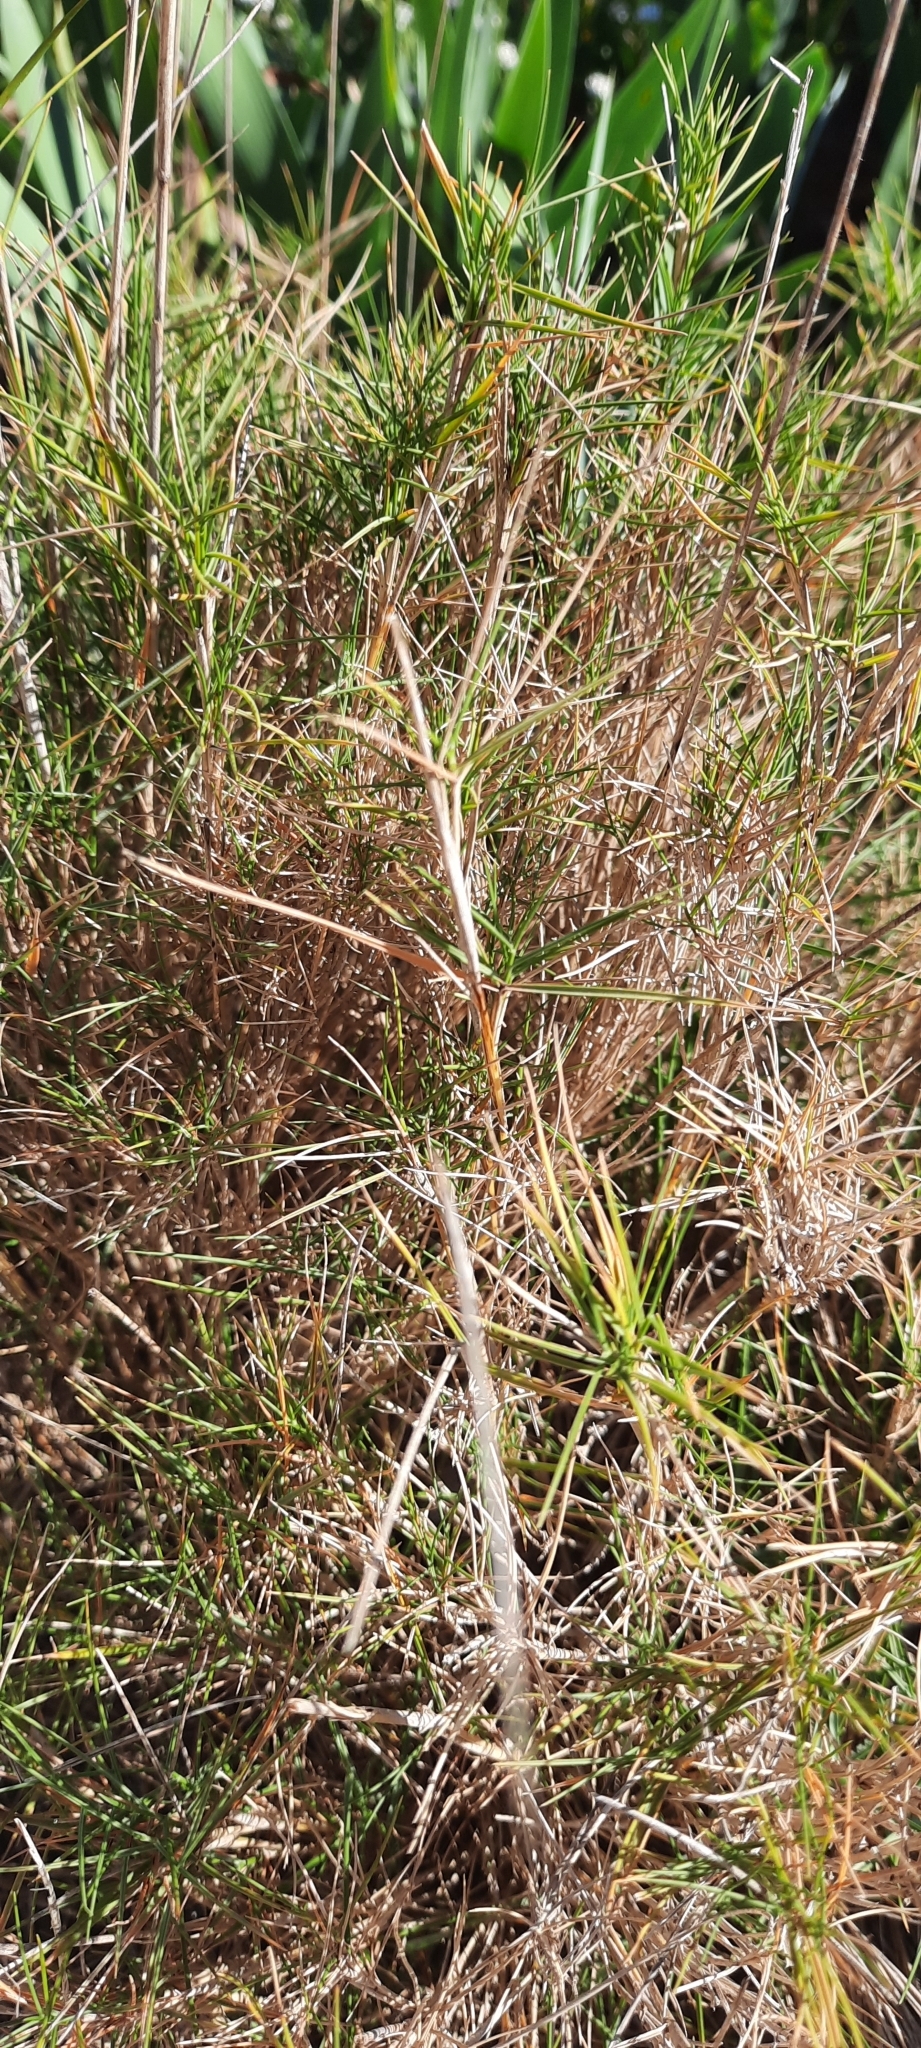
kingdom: Plantae
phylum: Tracheophyta
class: Liliopsida
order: Poales
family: Poaceae
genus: Brachypodium
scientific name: Brachypodium retusum
